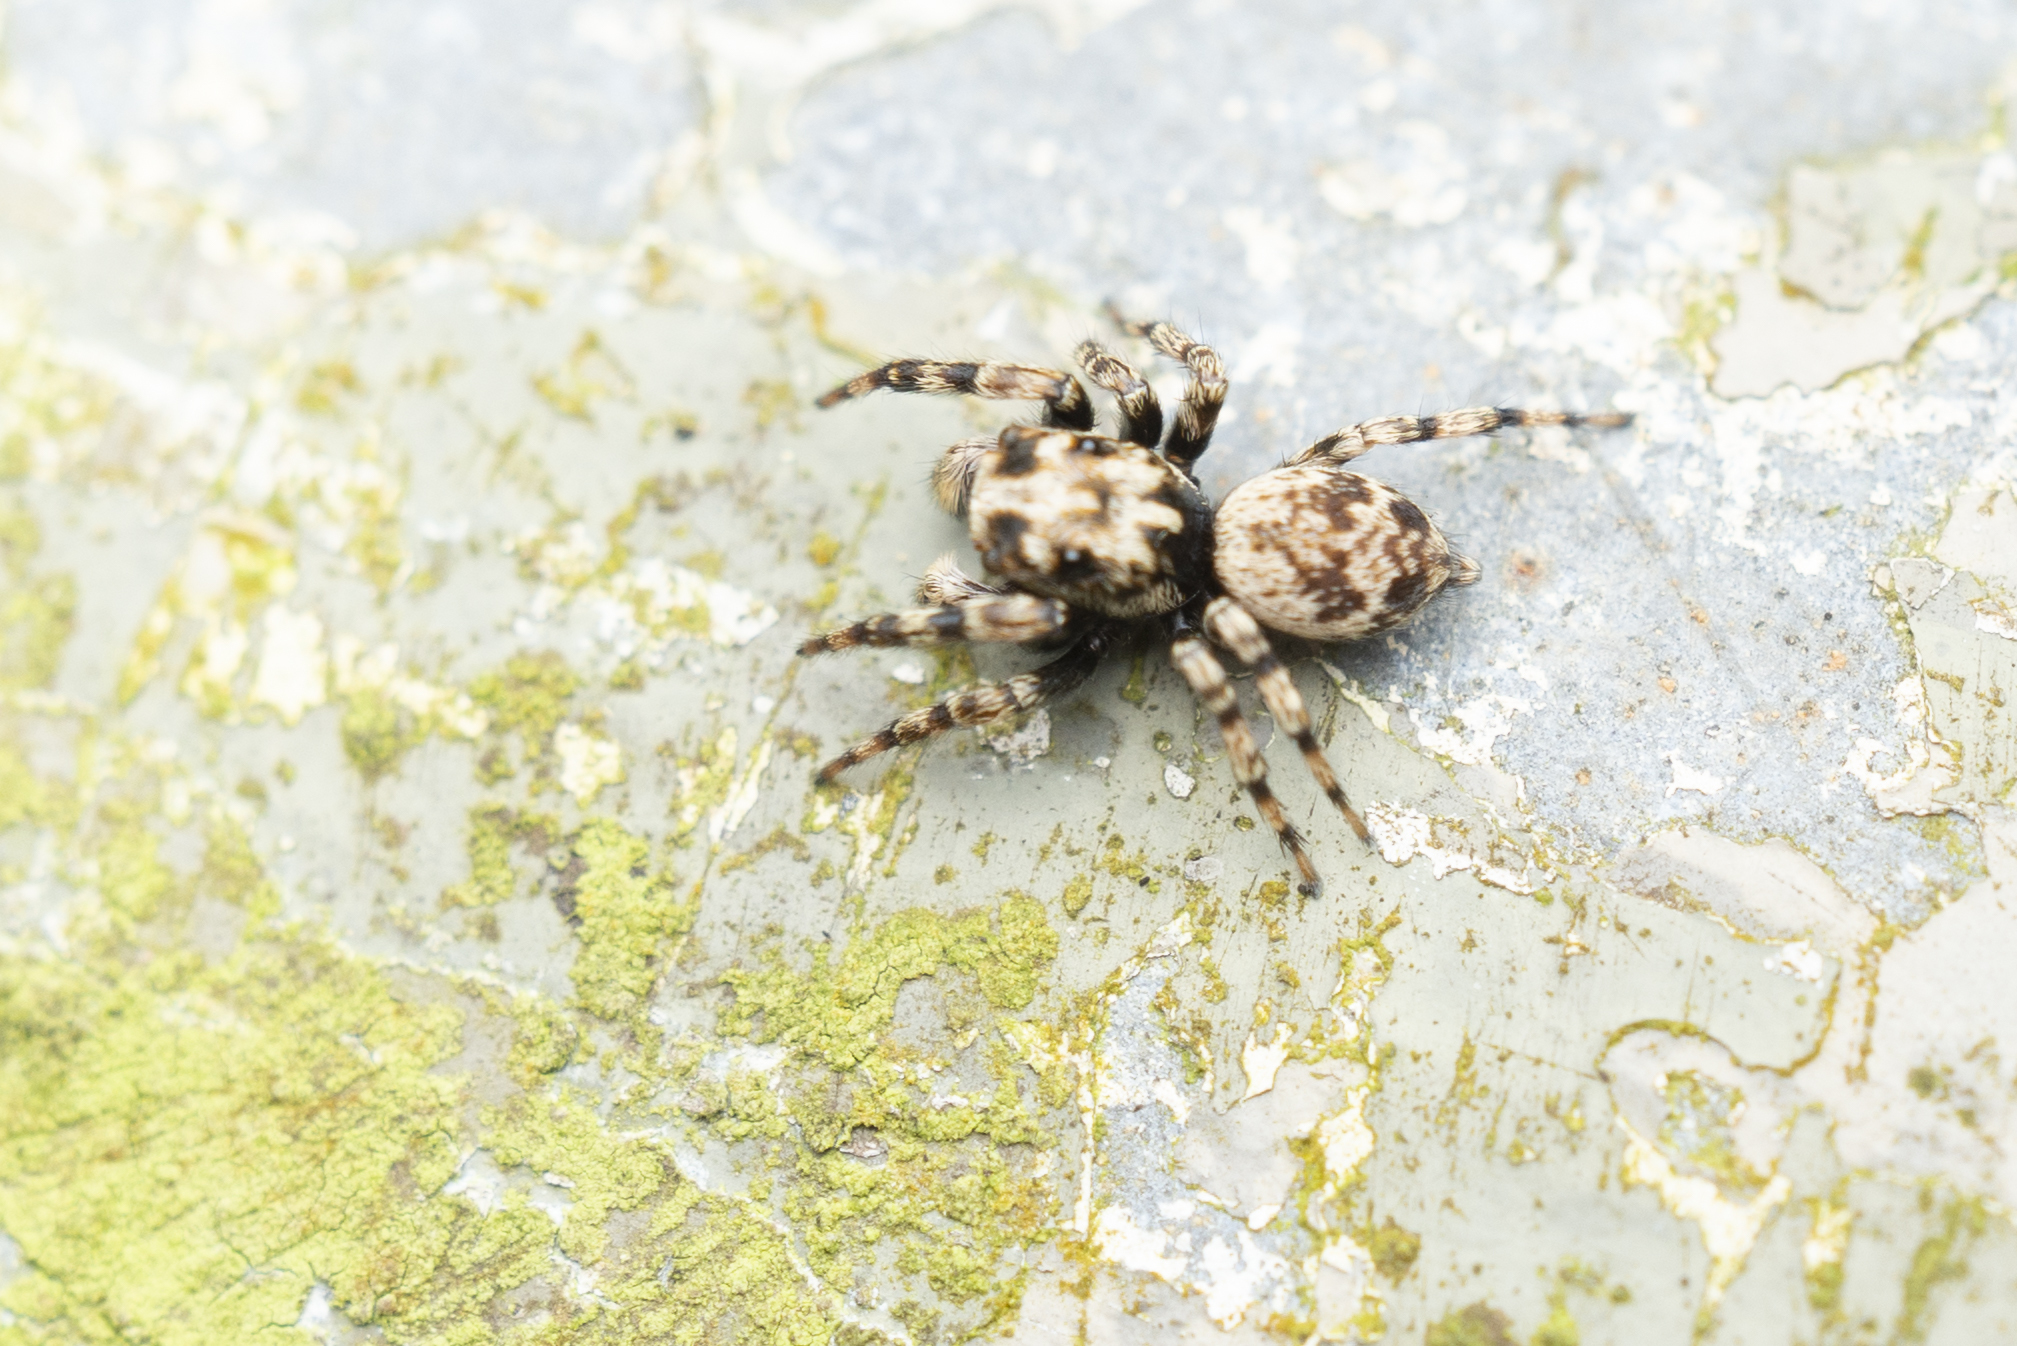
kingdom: Animalia
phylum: Arthropoda
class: Arachnida
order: Araneae
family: Salticidae
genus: Habrocestum
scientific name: Habrocestum hongkongiense
